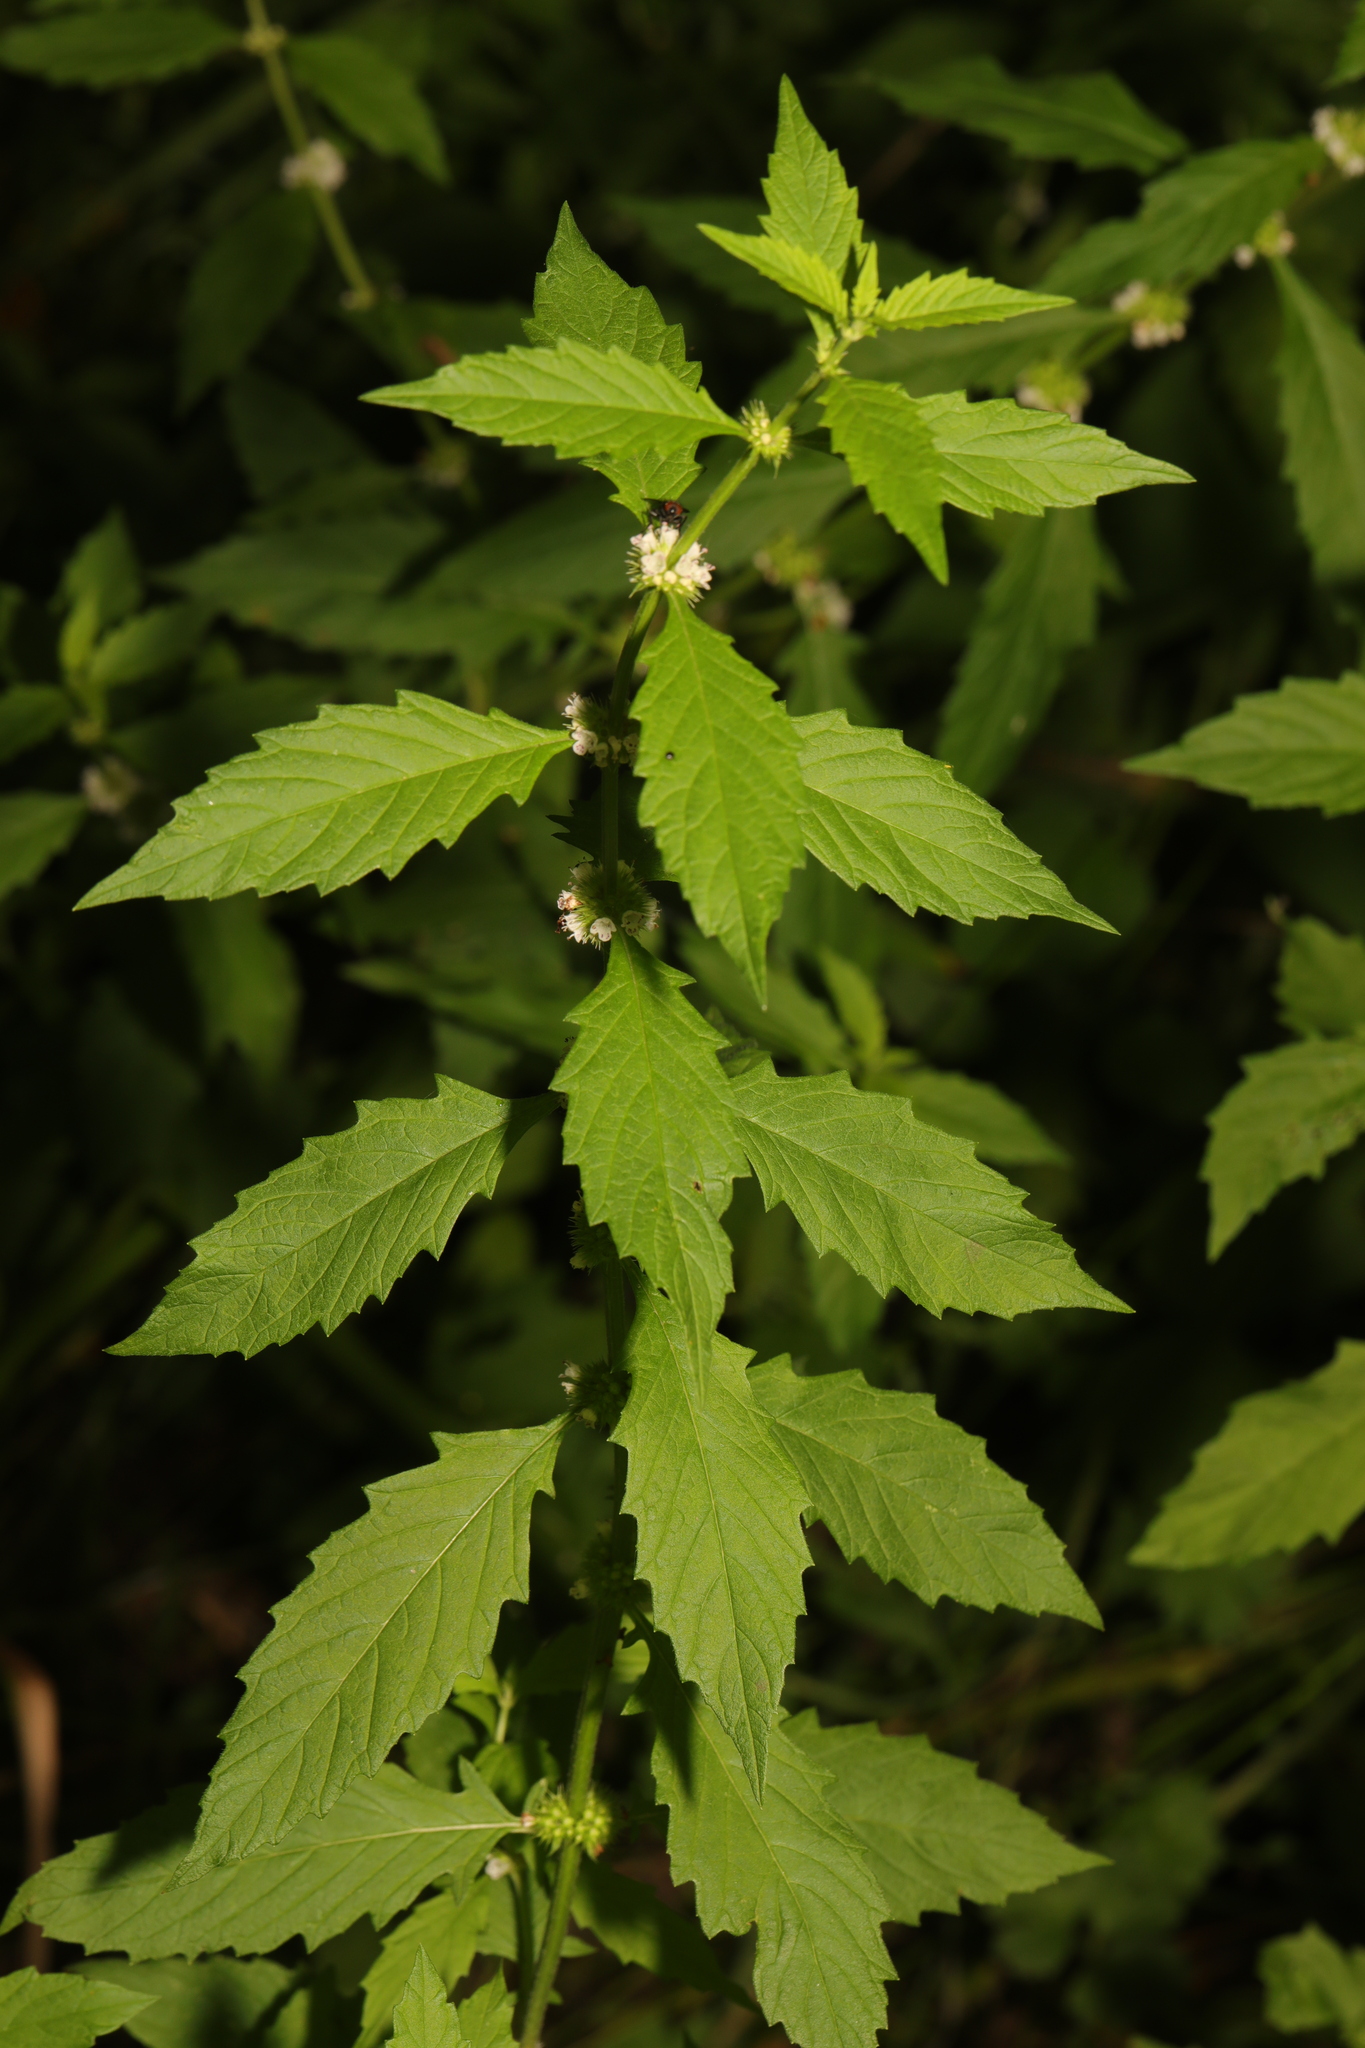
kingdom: Plantae
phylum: Tracheophyta
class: Magnoliopsida
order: Lamiales
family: Lamiaceae
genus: Lycopus
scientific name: Lycopus europaeus
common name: European bugleweed
